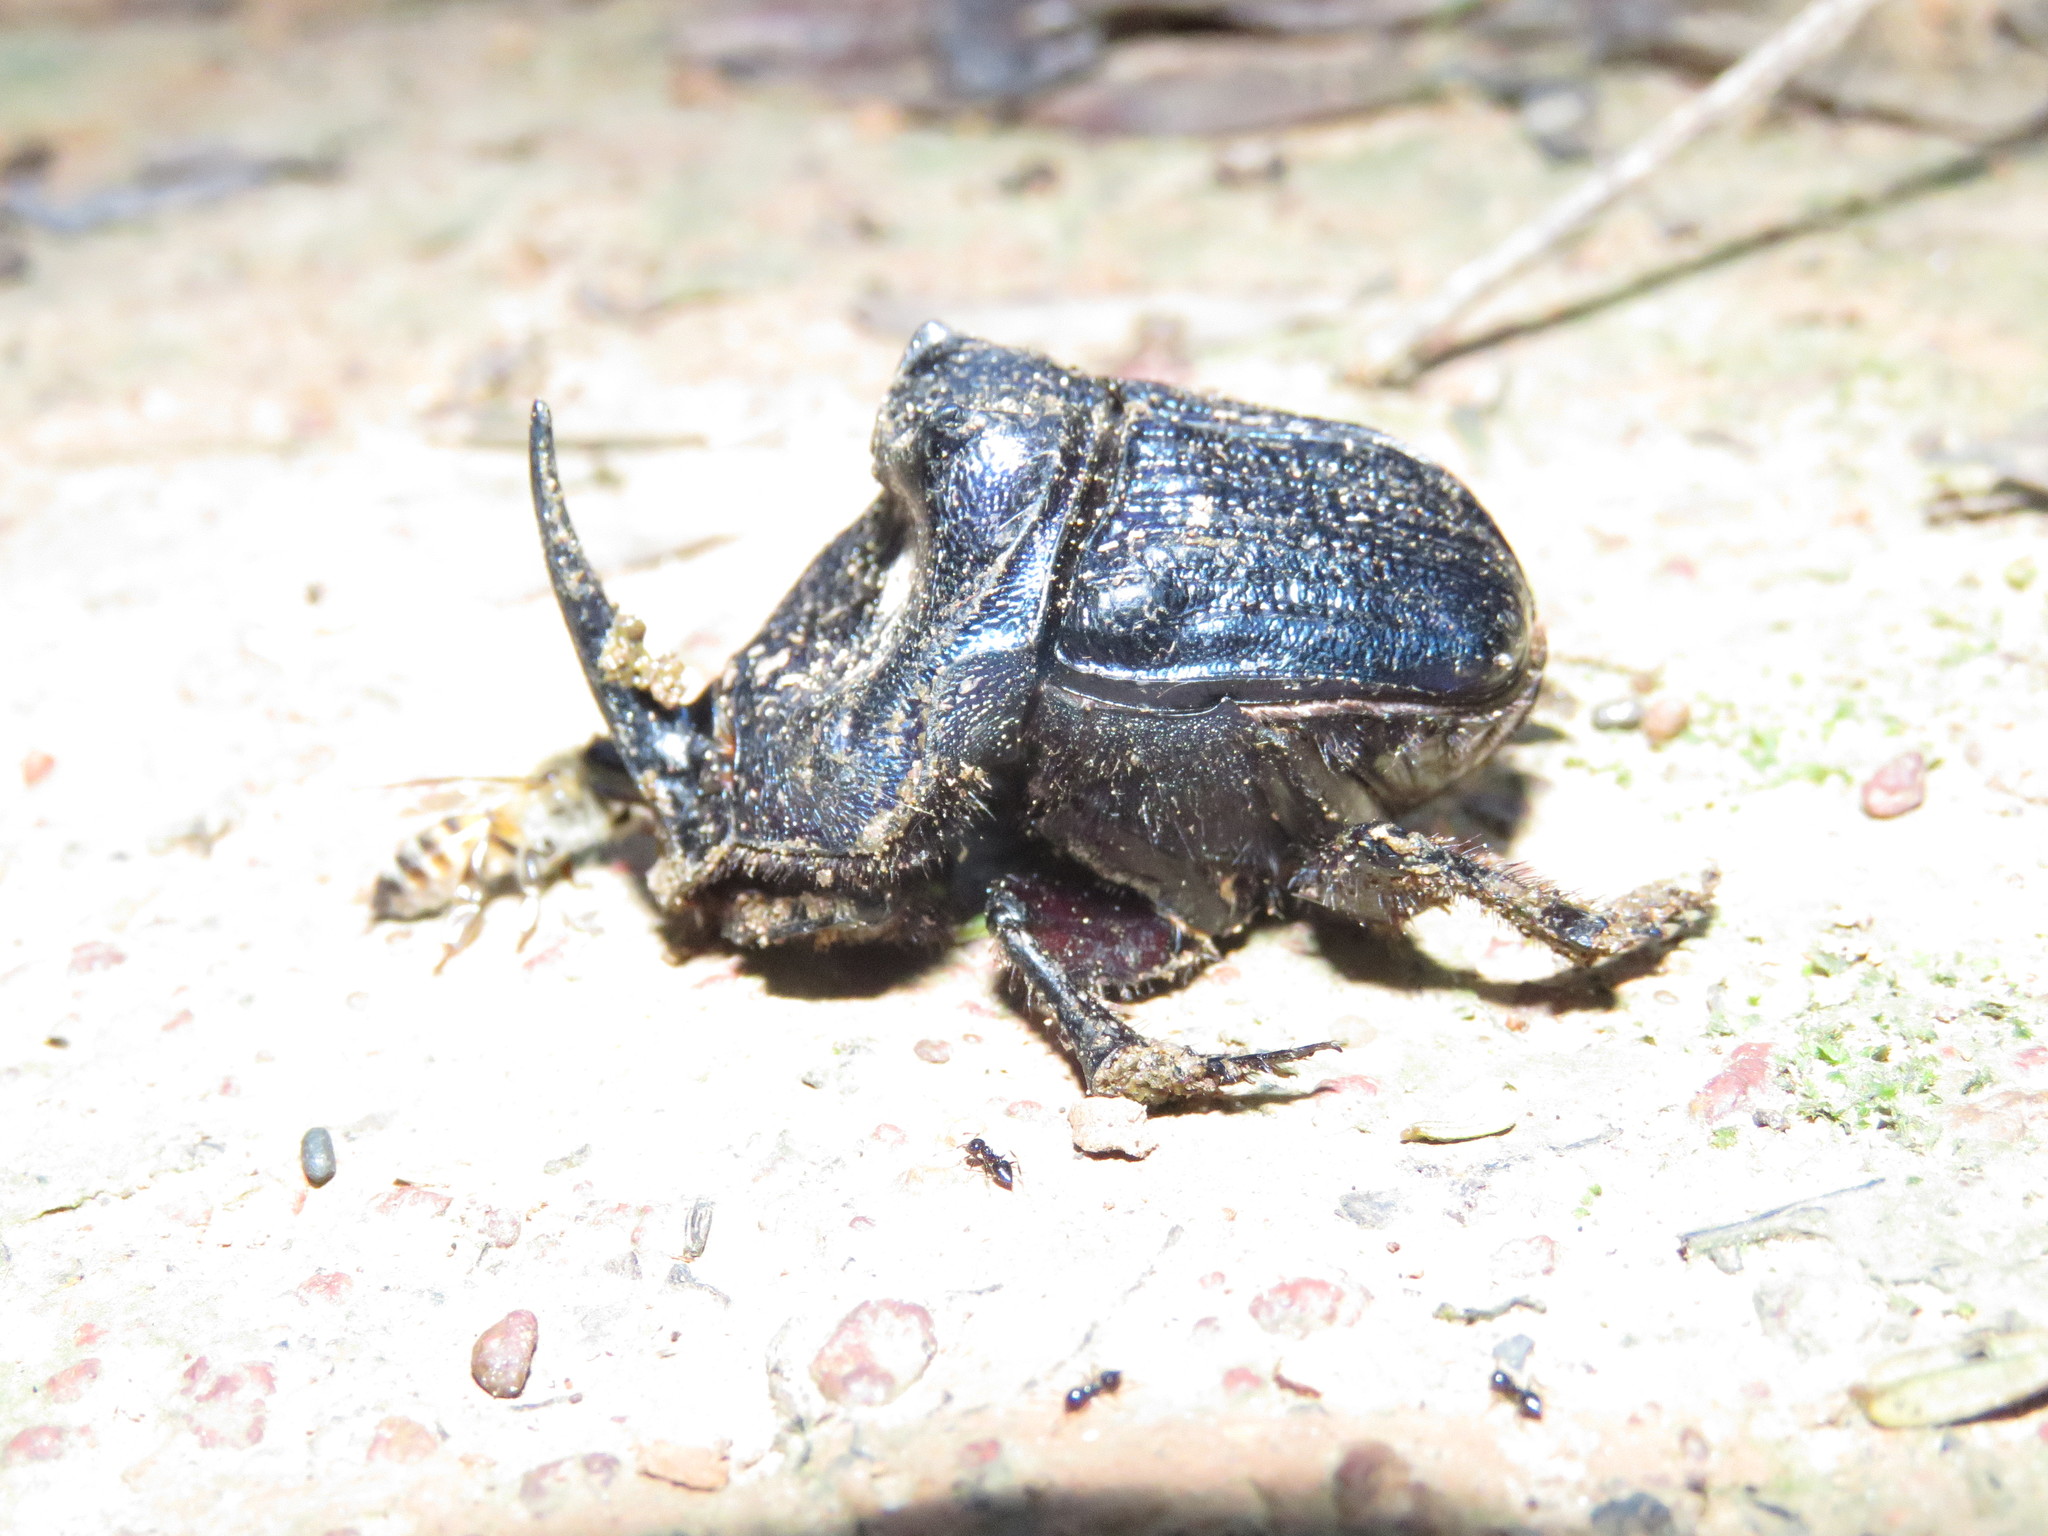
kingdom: Animalia
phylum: Arthropoda
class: Insecta
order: Coleoptera
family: Scarabaeidae
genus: Coprophanaeus
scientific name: Coprophanaeus lancifer
